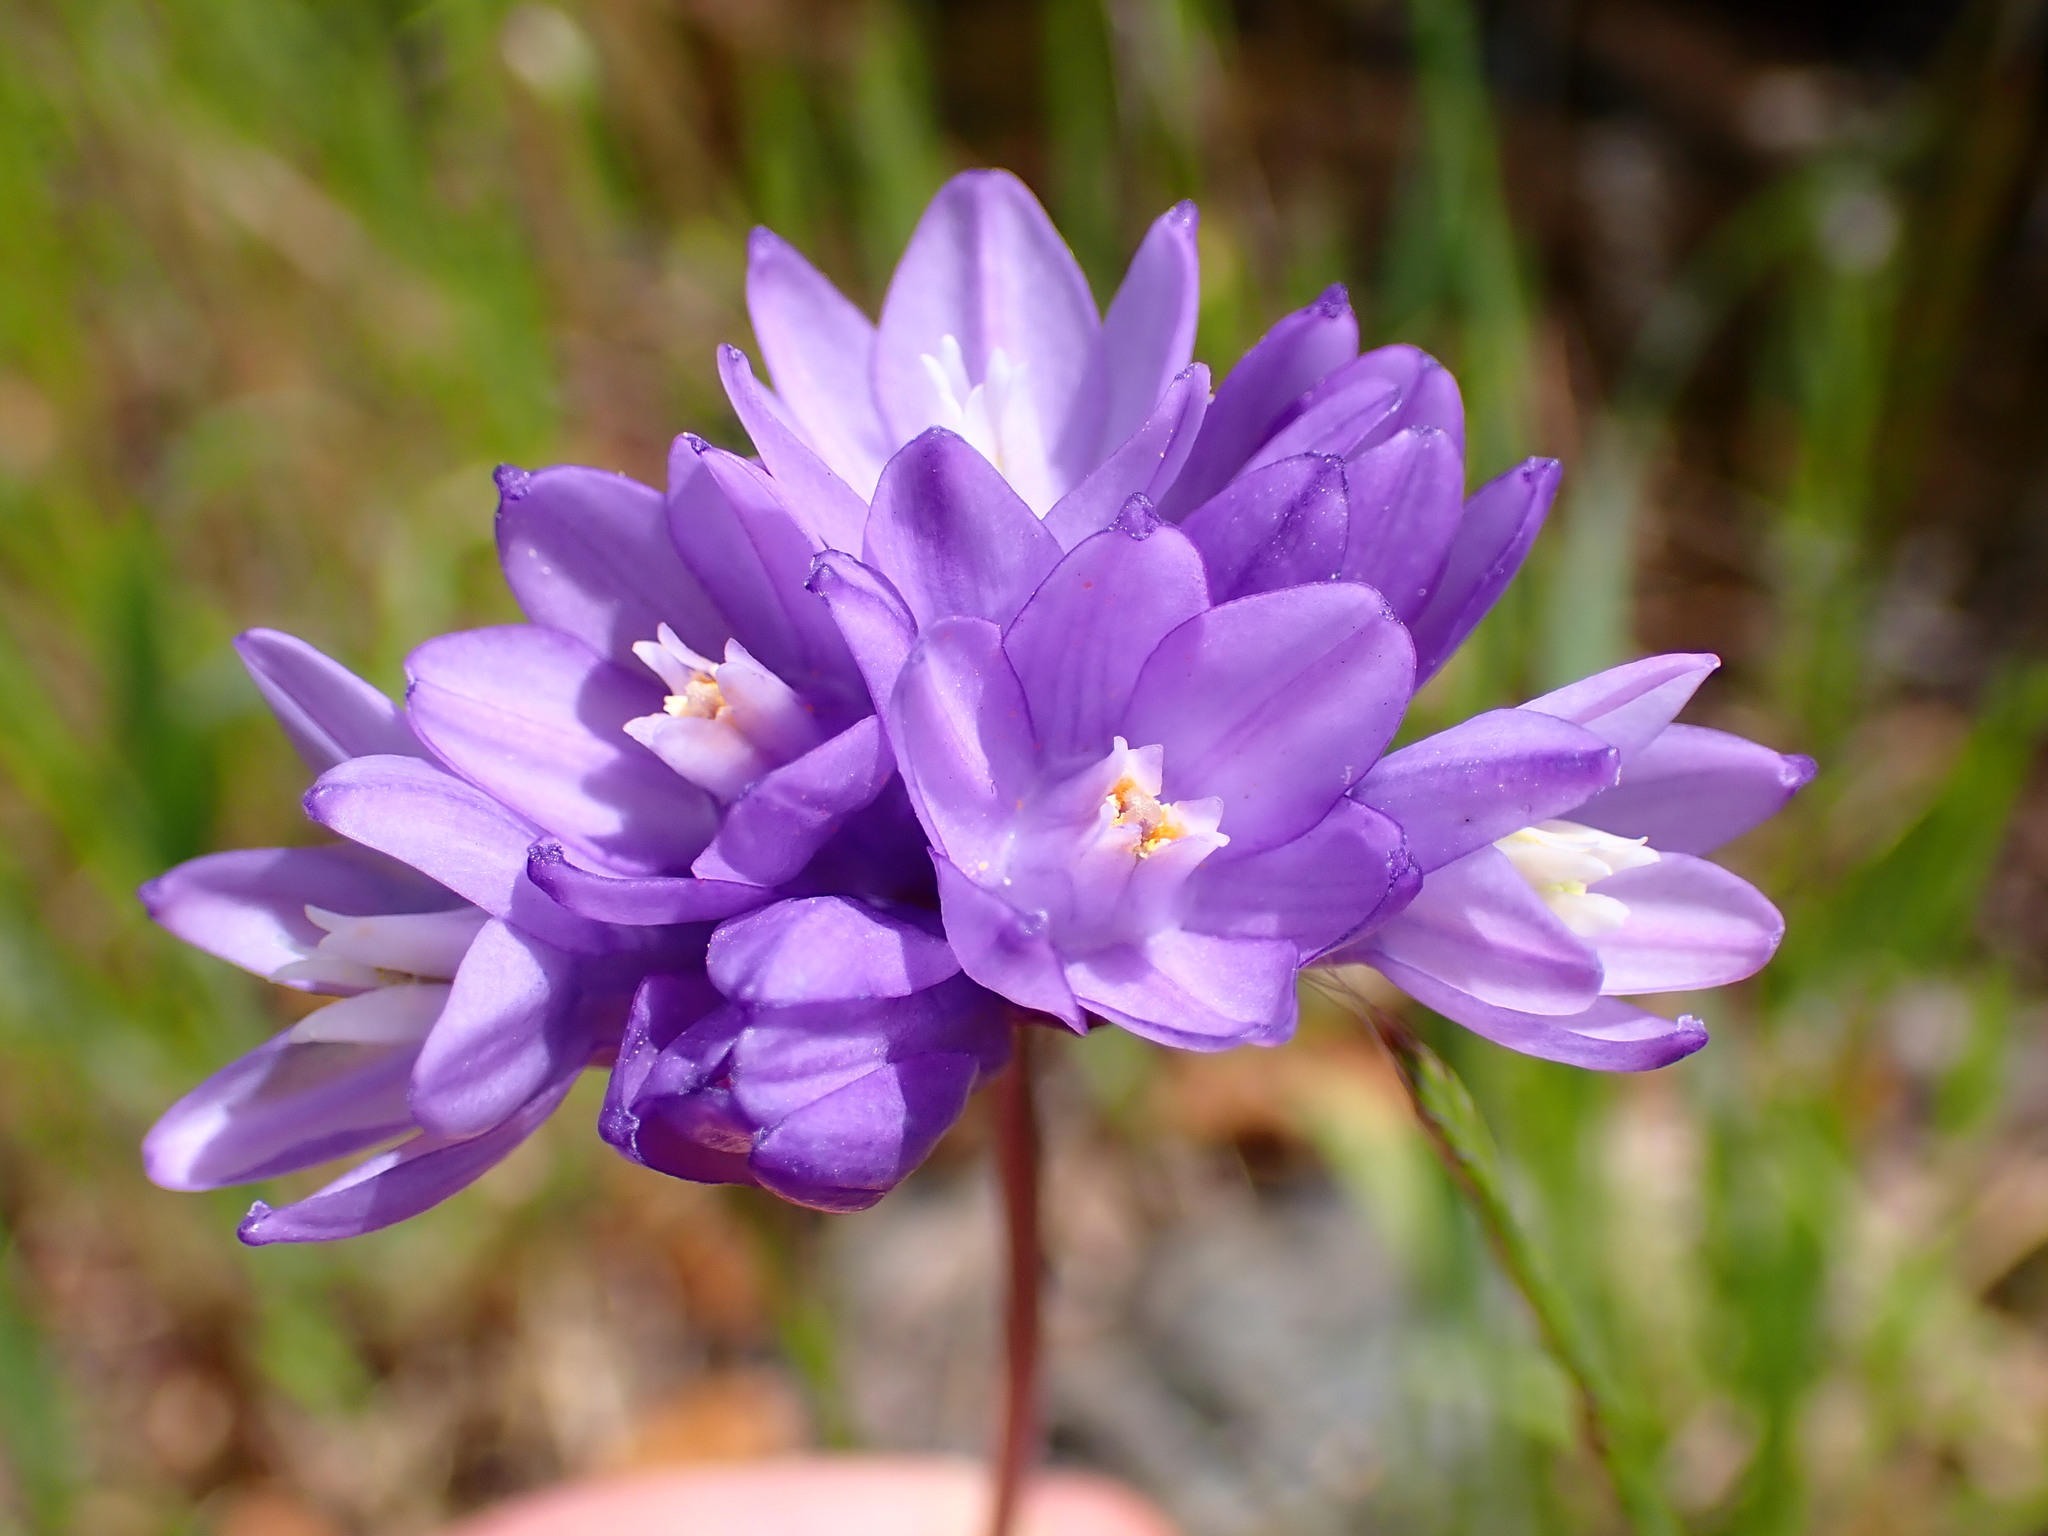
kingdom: Plantae
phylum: Tracheophyta
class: Liliopsida
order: Asparagales
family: Asparagaceae
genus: Dipterostemon
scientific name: Dipterostemon capitatus
